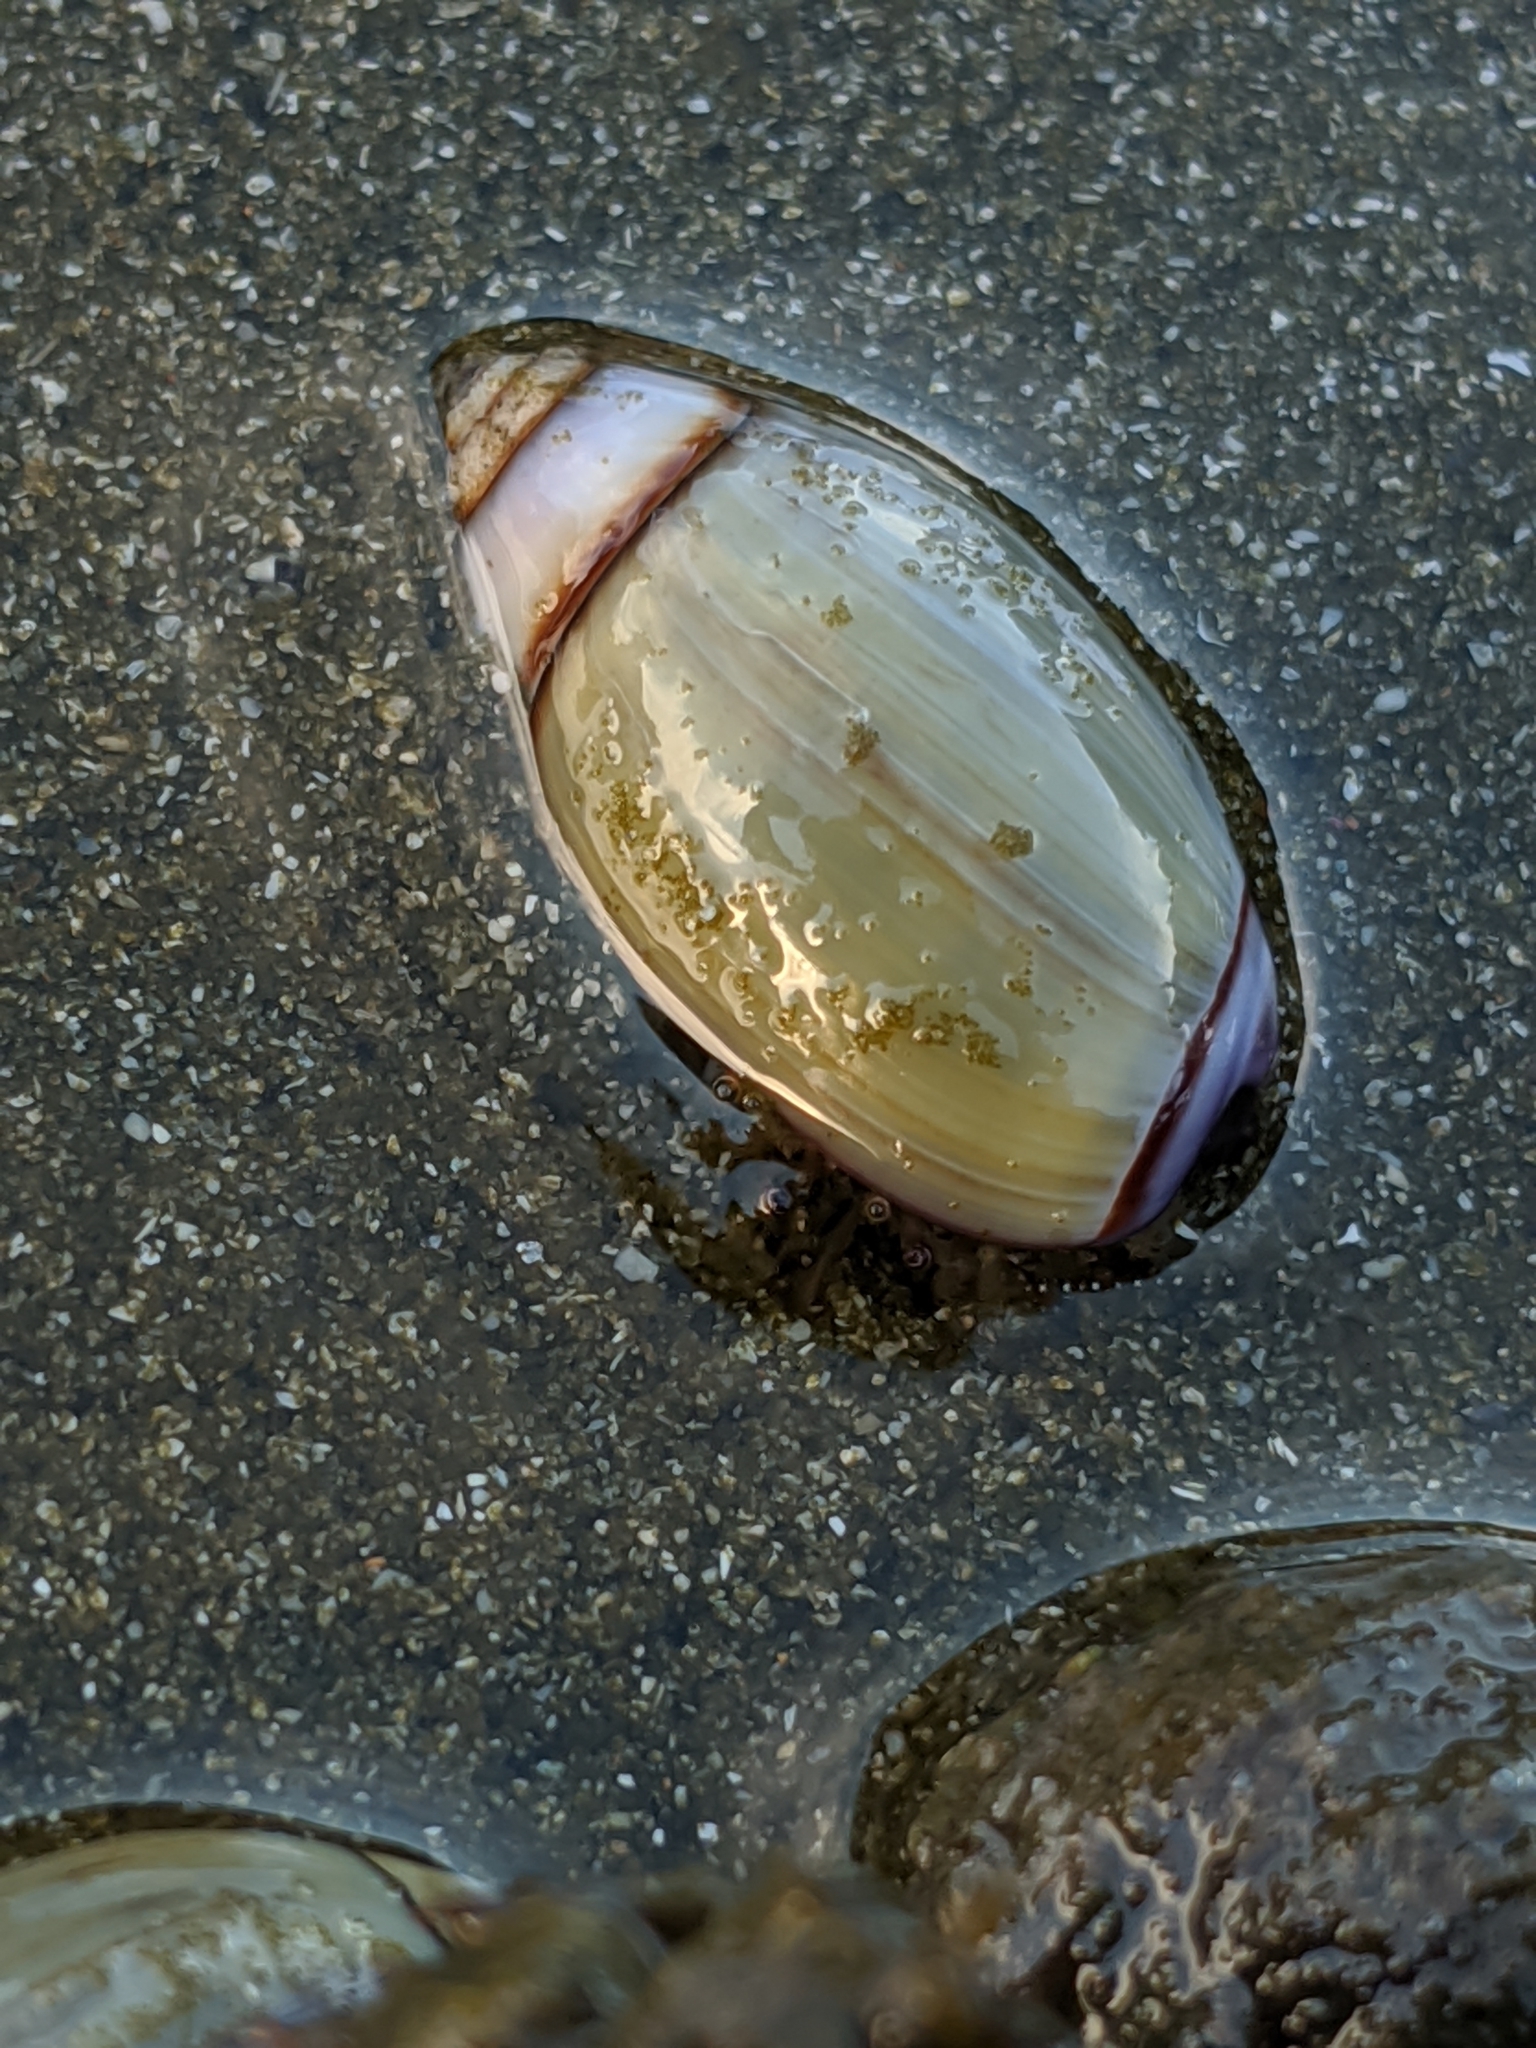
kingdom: Animalia
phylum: Mollusca
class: Gastropoda
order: Neogastropoda
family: Olividae
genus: Callianax
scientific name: Callianax biplicata
